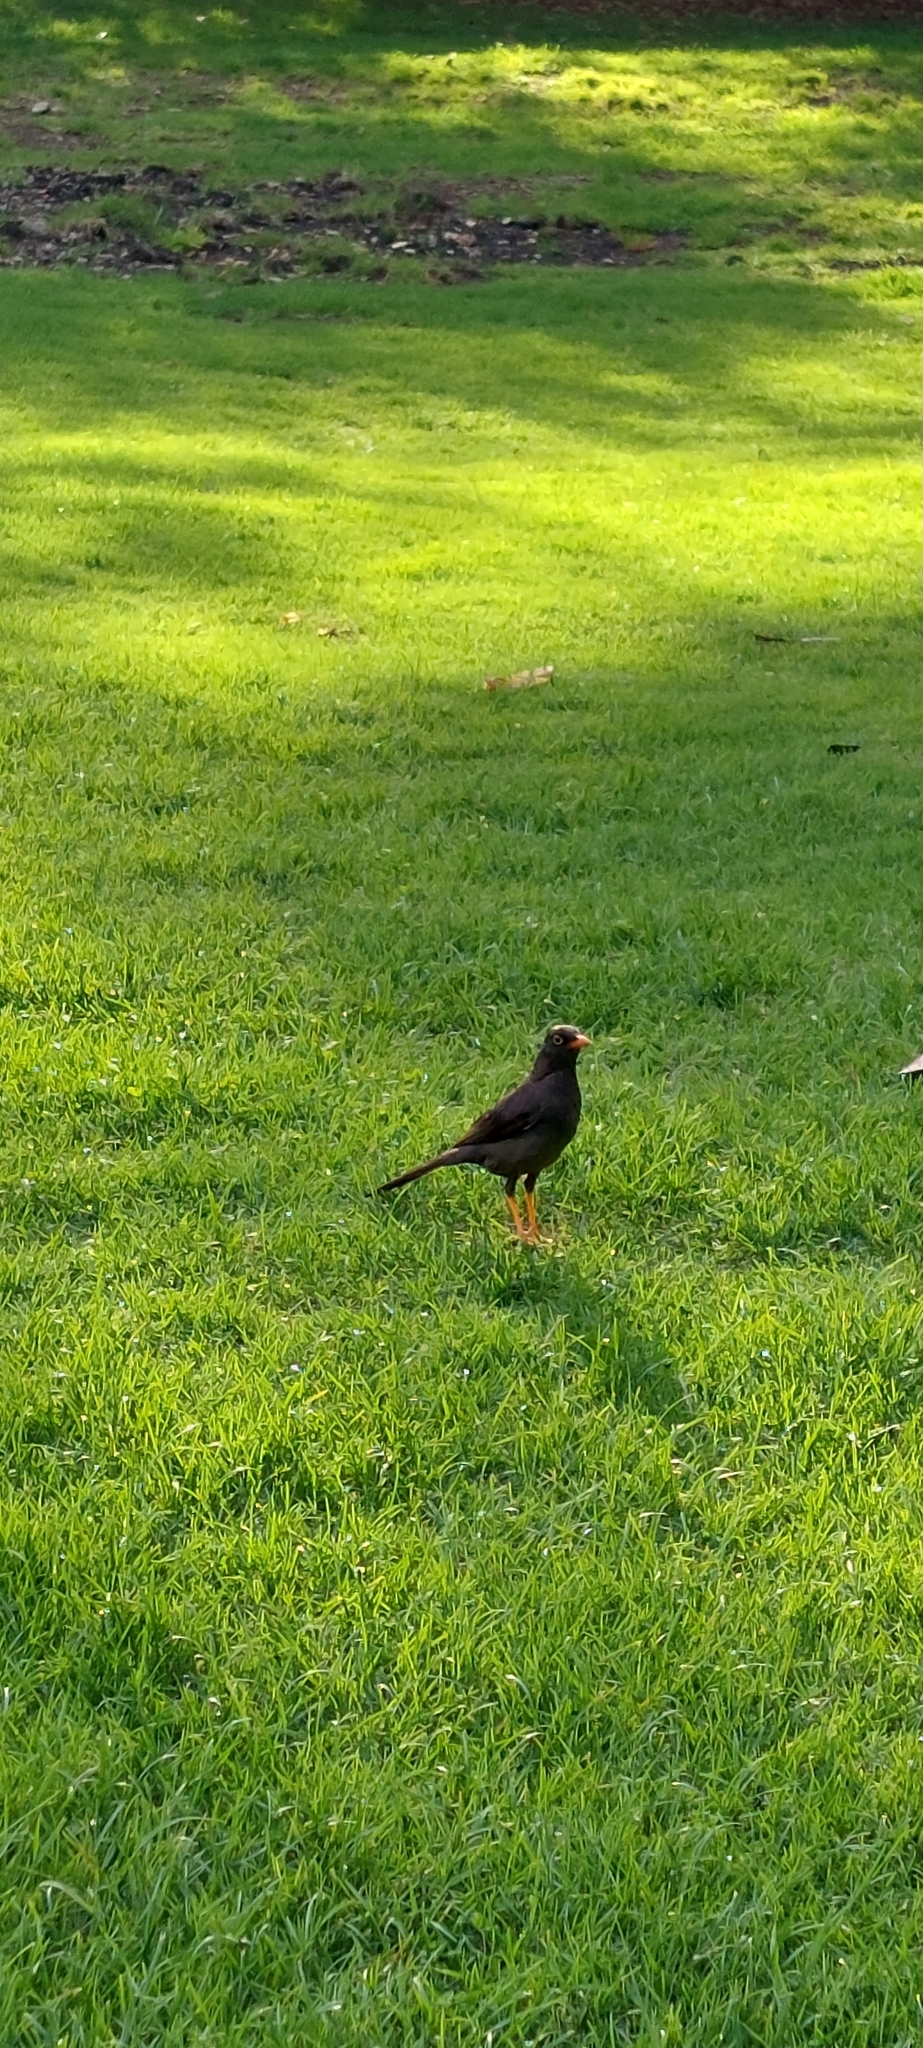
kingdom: Animalia
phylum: Chordata
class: Aves
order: Passeriformes
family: Turdidae
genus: Turdus
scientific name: Turdus fuscater
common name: Great thrush
